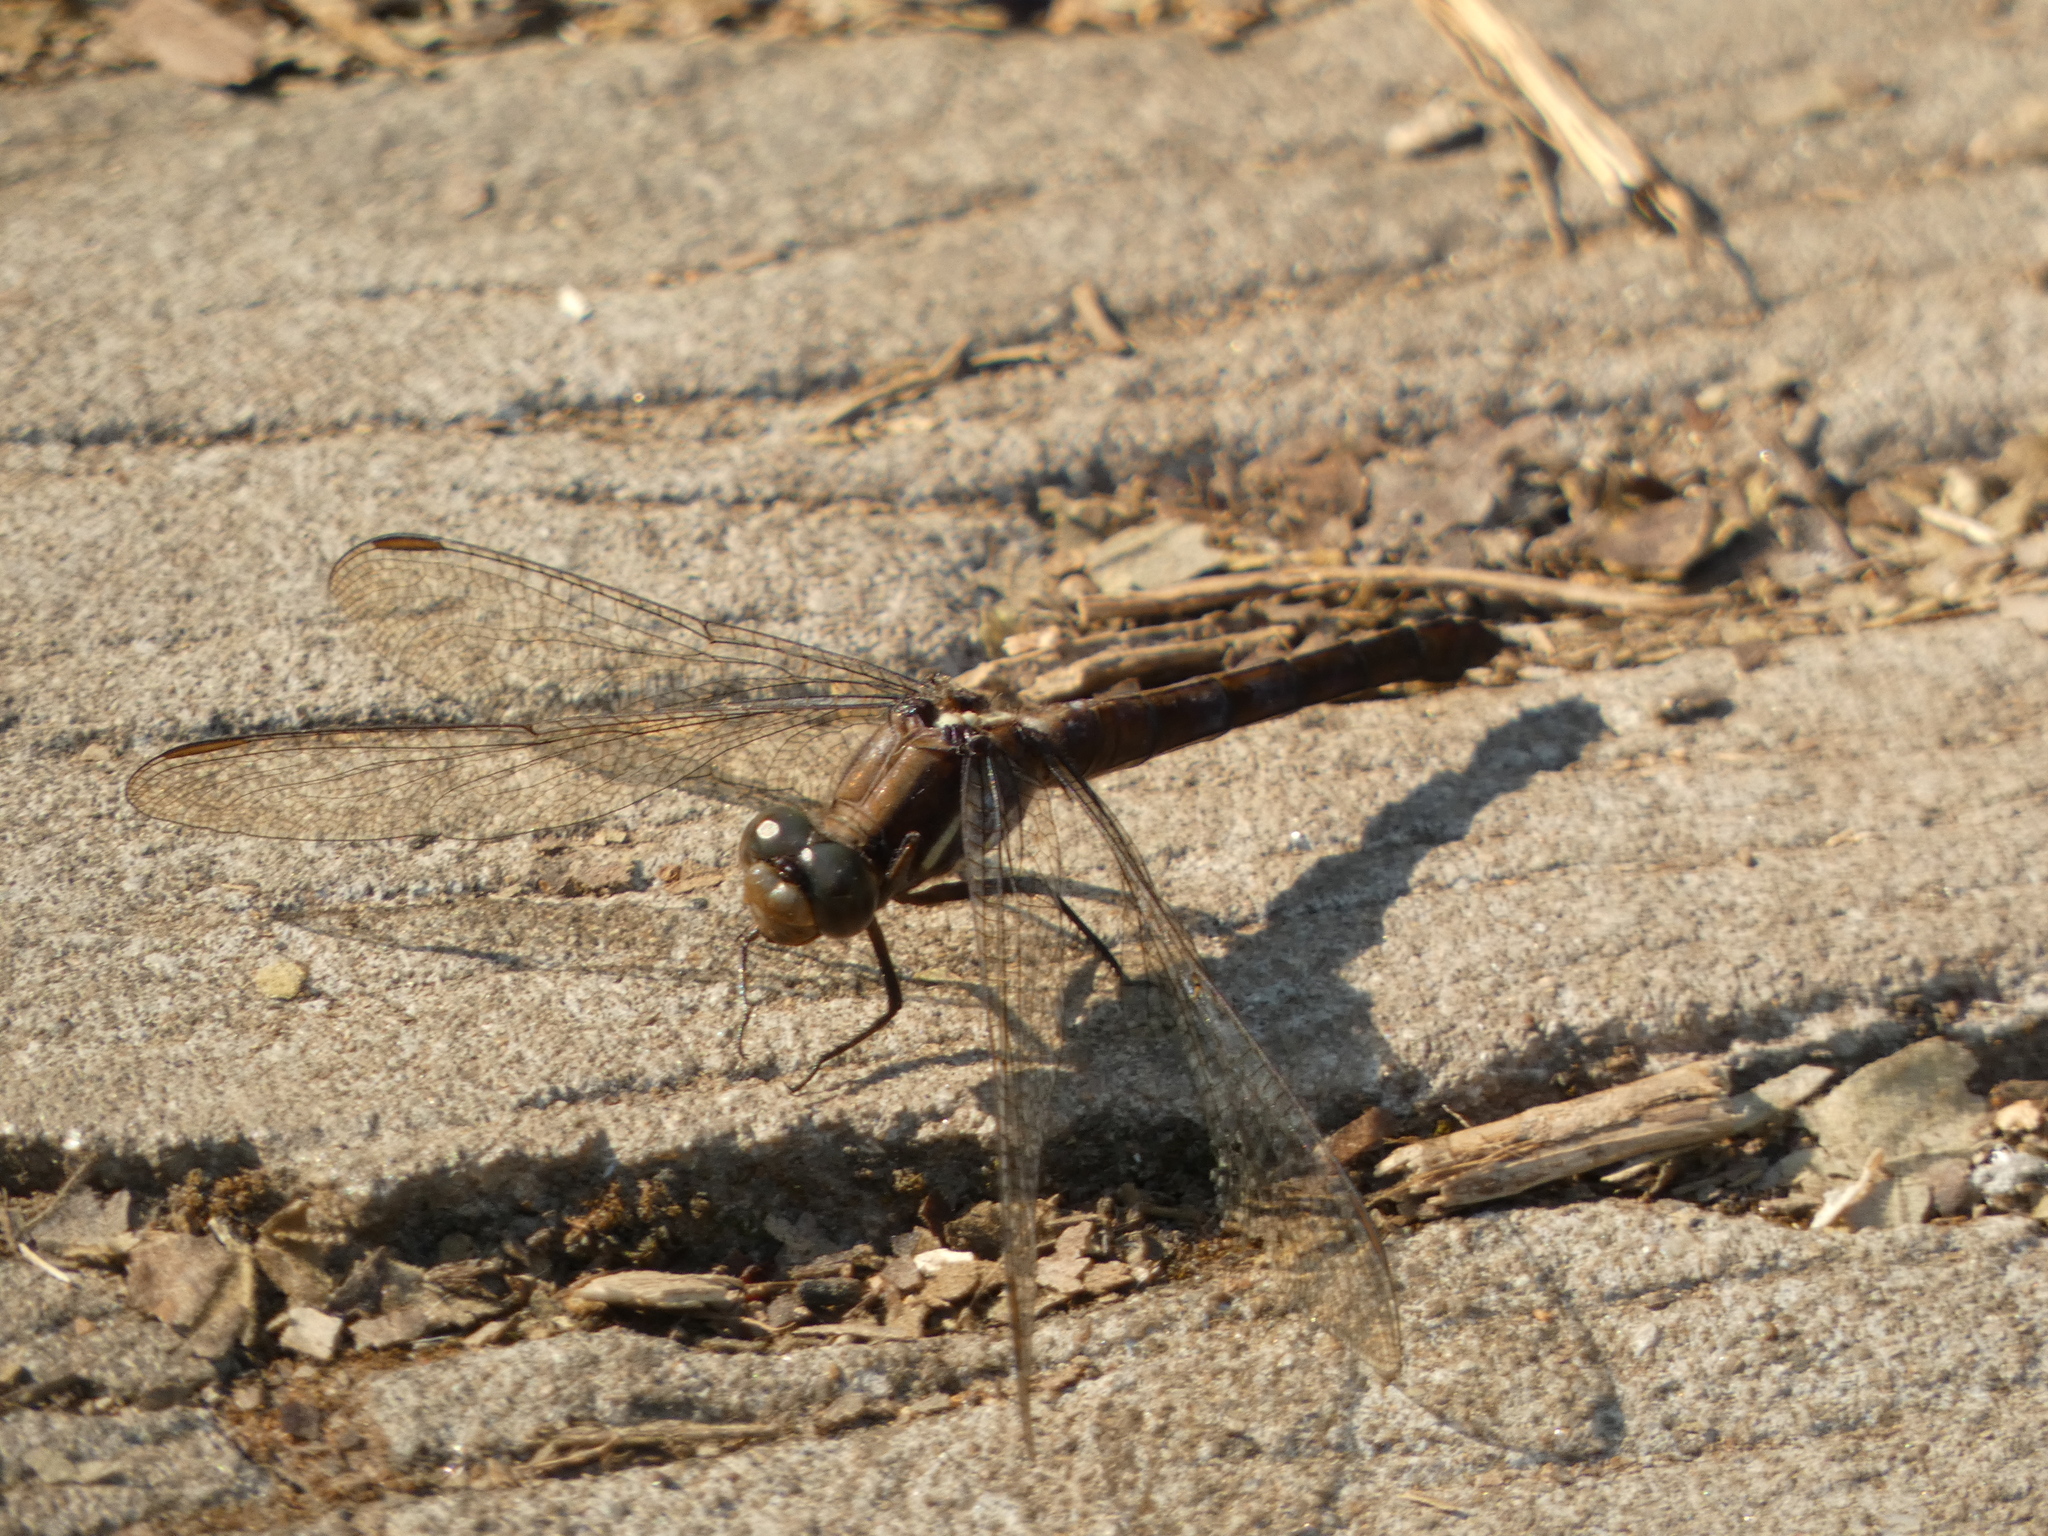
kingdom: Animalia
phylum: Arthropoda
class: Insecta
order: Odonata
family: Libellulidae
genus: Orthetrum
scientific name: Orthetrum glaucum
